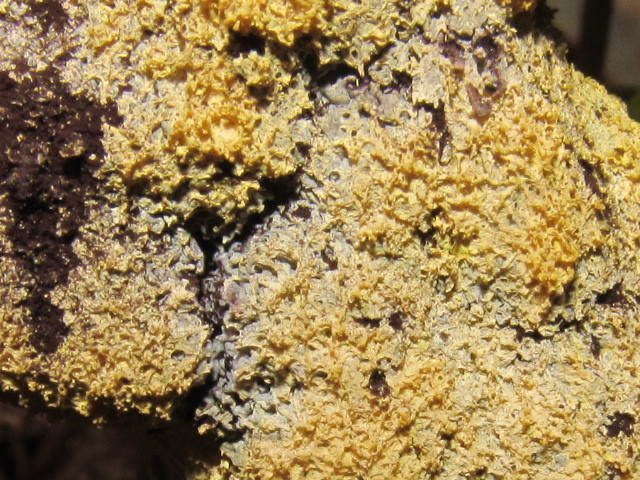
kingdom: Protozoa
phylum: Mycetozoa
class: Myxomycetes
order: Physarales
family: Physaraceae
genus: Fuligo
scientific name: Fuligo septica
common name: Dog vomit slime mold
